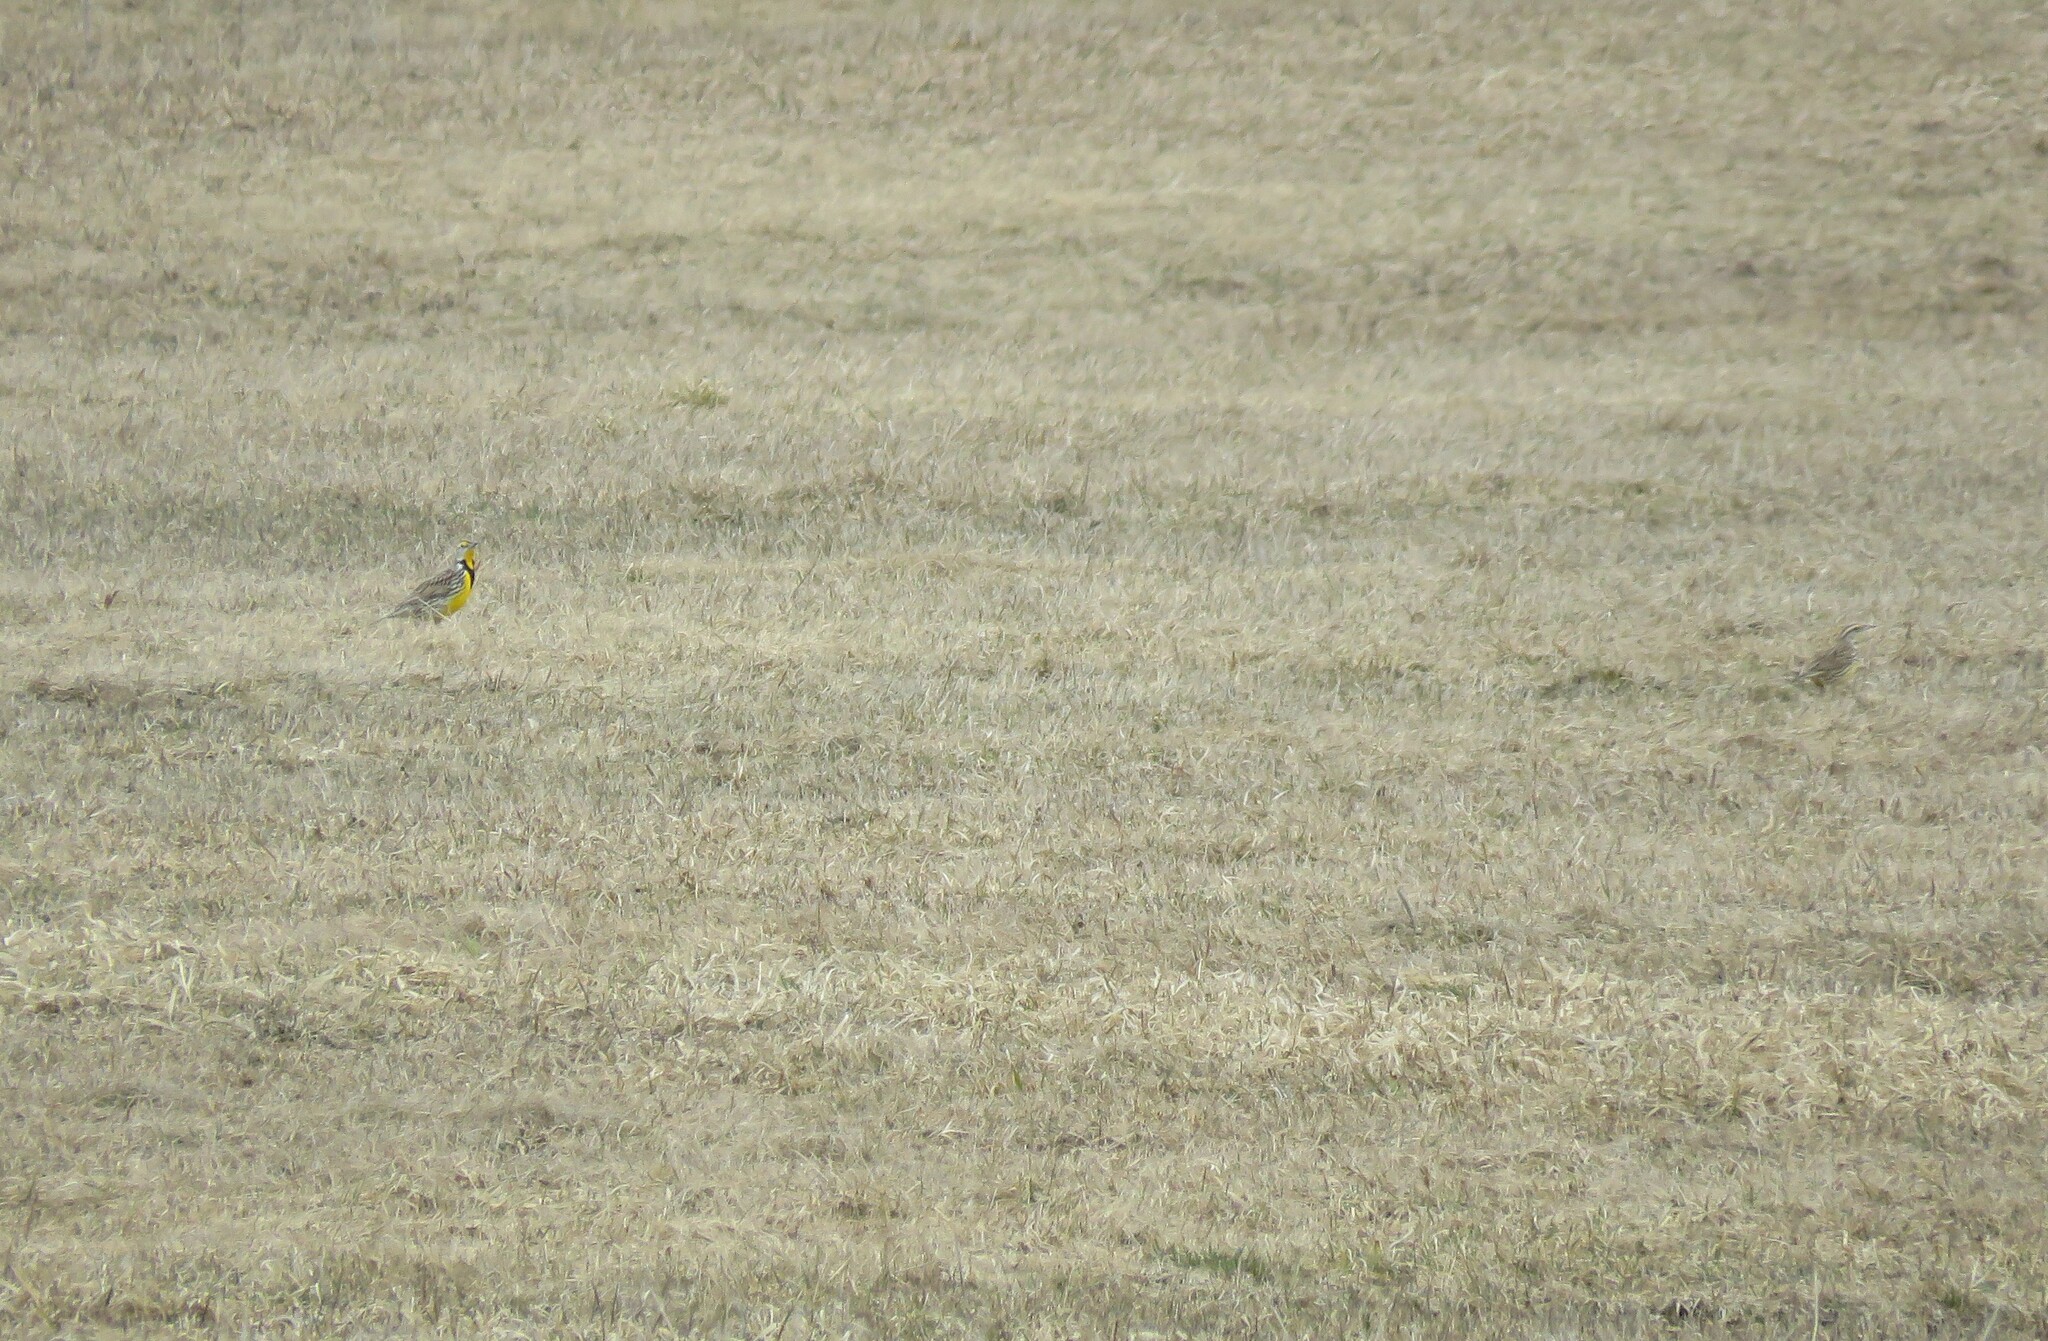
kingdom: Animalia
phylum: Chordata
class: Aves
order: Passeriformes
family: Icteridae
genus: Sturnella
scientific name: Sturnella magna
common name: Eastern meadowlark
